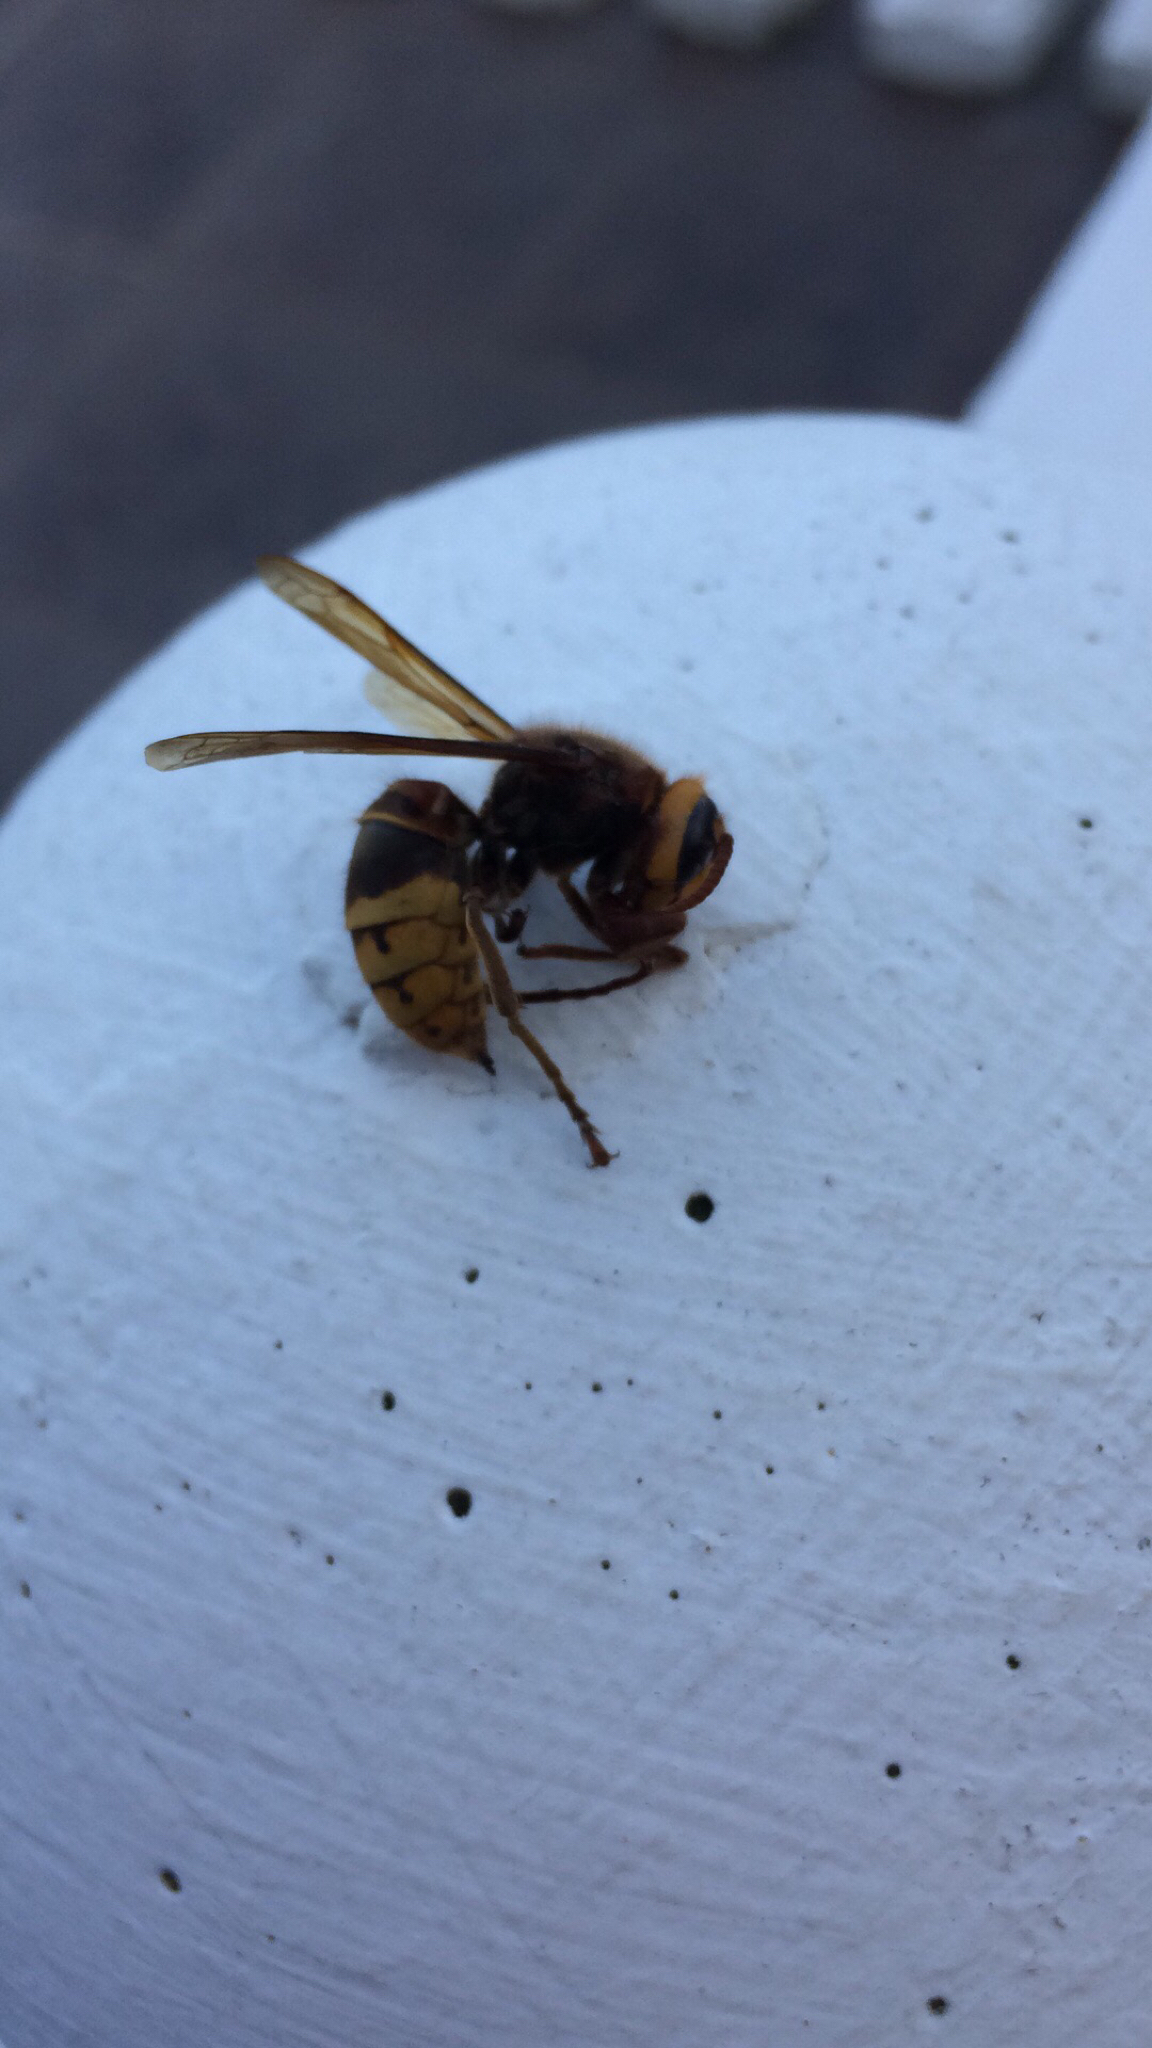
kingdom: Animalia
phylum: Arthropoda
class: Insecta
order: Hymenoptera
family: Vespidae
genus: Vespa
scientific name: Vespa crabro
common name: Hornet
